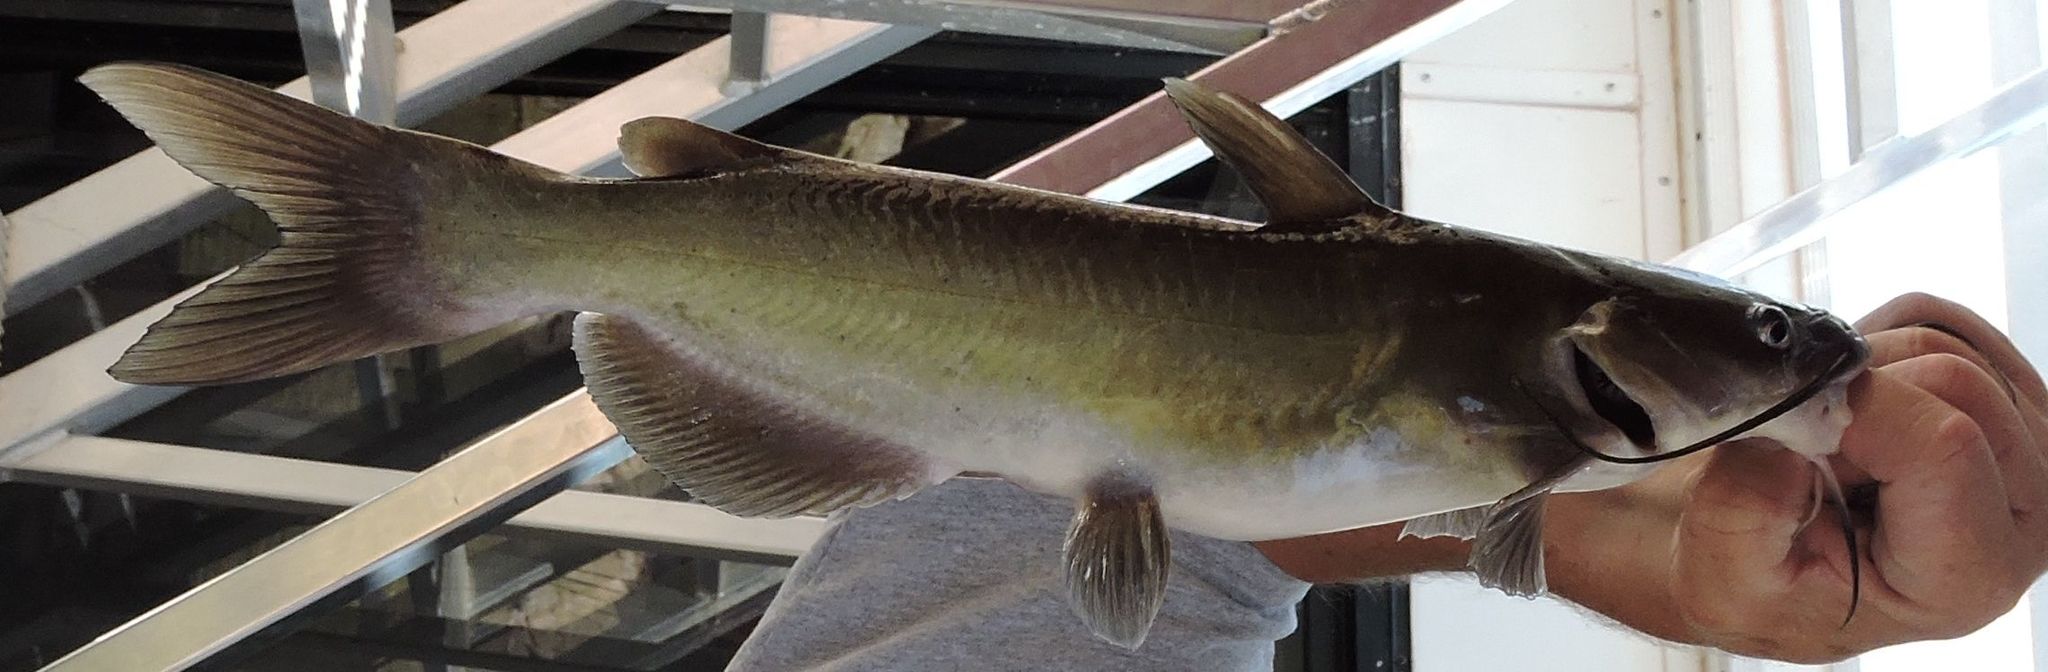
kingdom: Animalia
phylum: Chordata
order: Siluriformes
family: Ictaluridae
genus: Ictalurus
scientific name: Ictalurus punctatus
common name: Channel catfish
